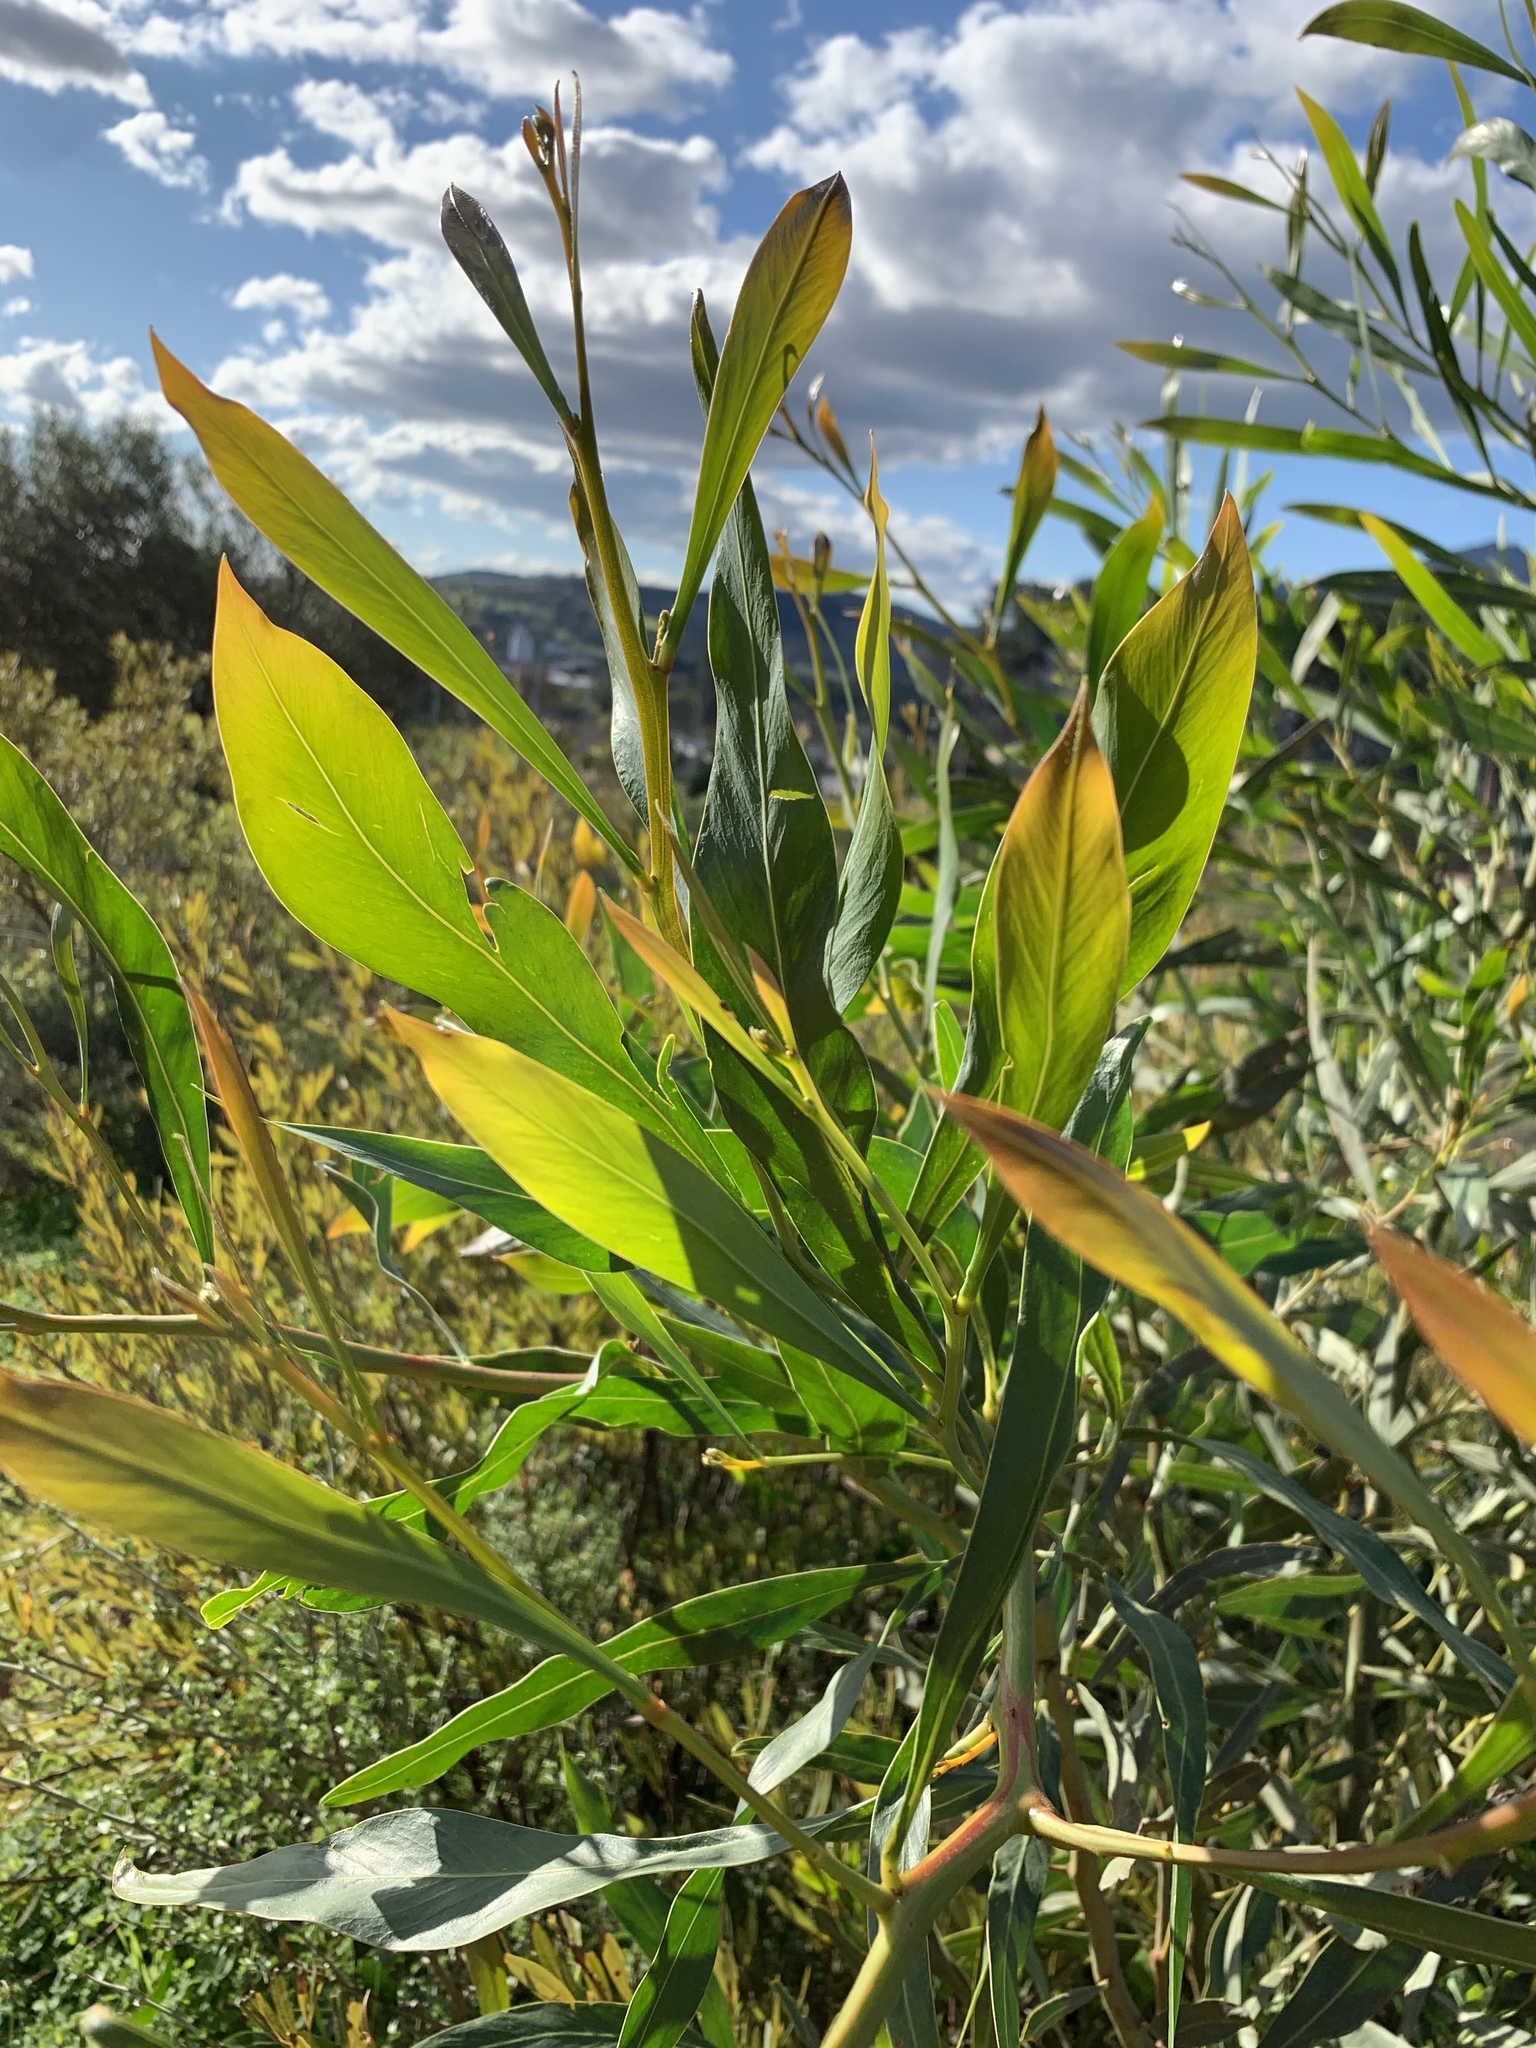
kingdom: Plantae
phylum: Tracheophyta
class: Magnoliopsida
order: Fabales
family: Fabaceae
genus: Acacia
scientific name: Acacia saligna
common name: Orange wattle
